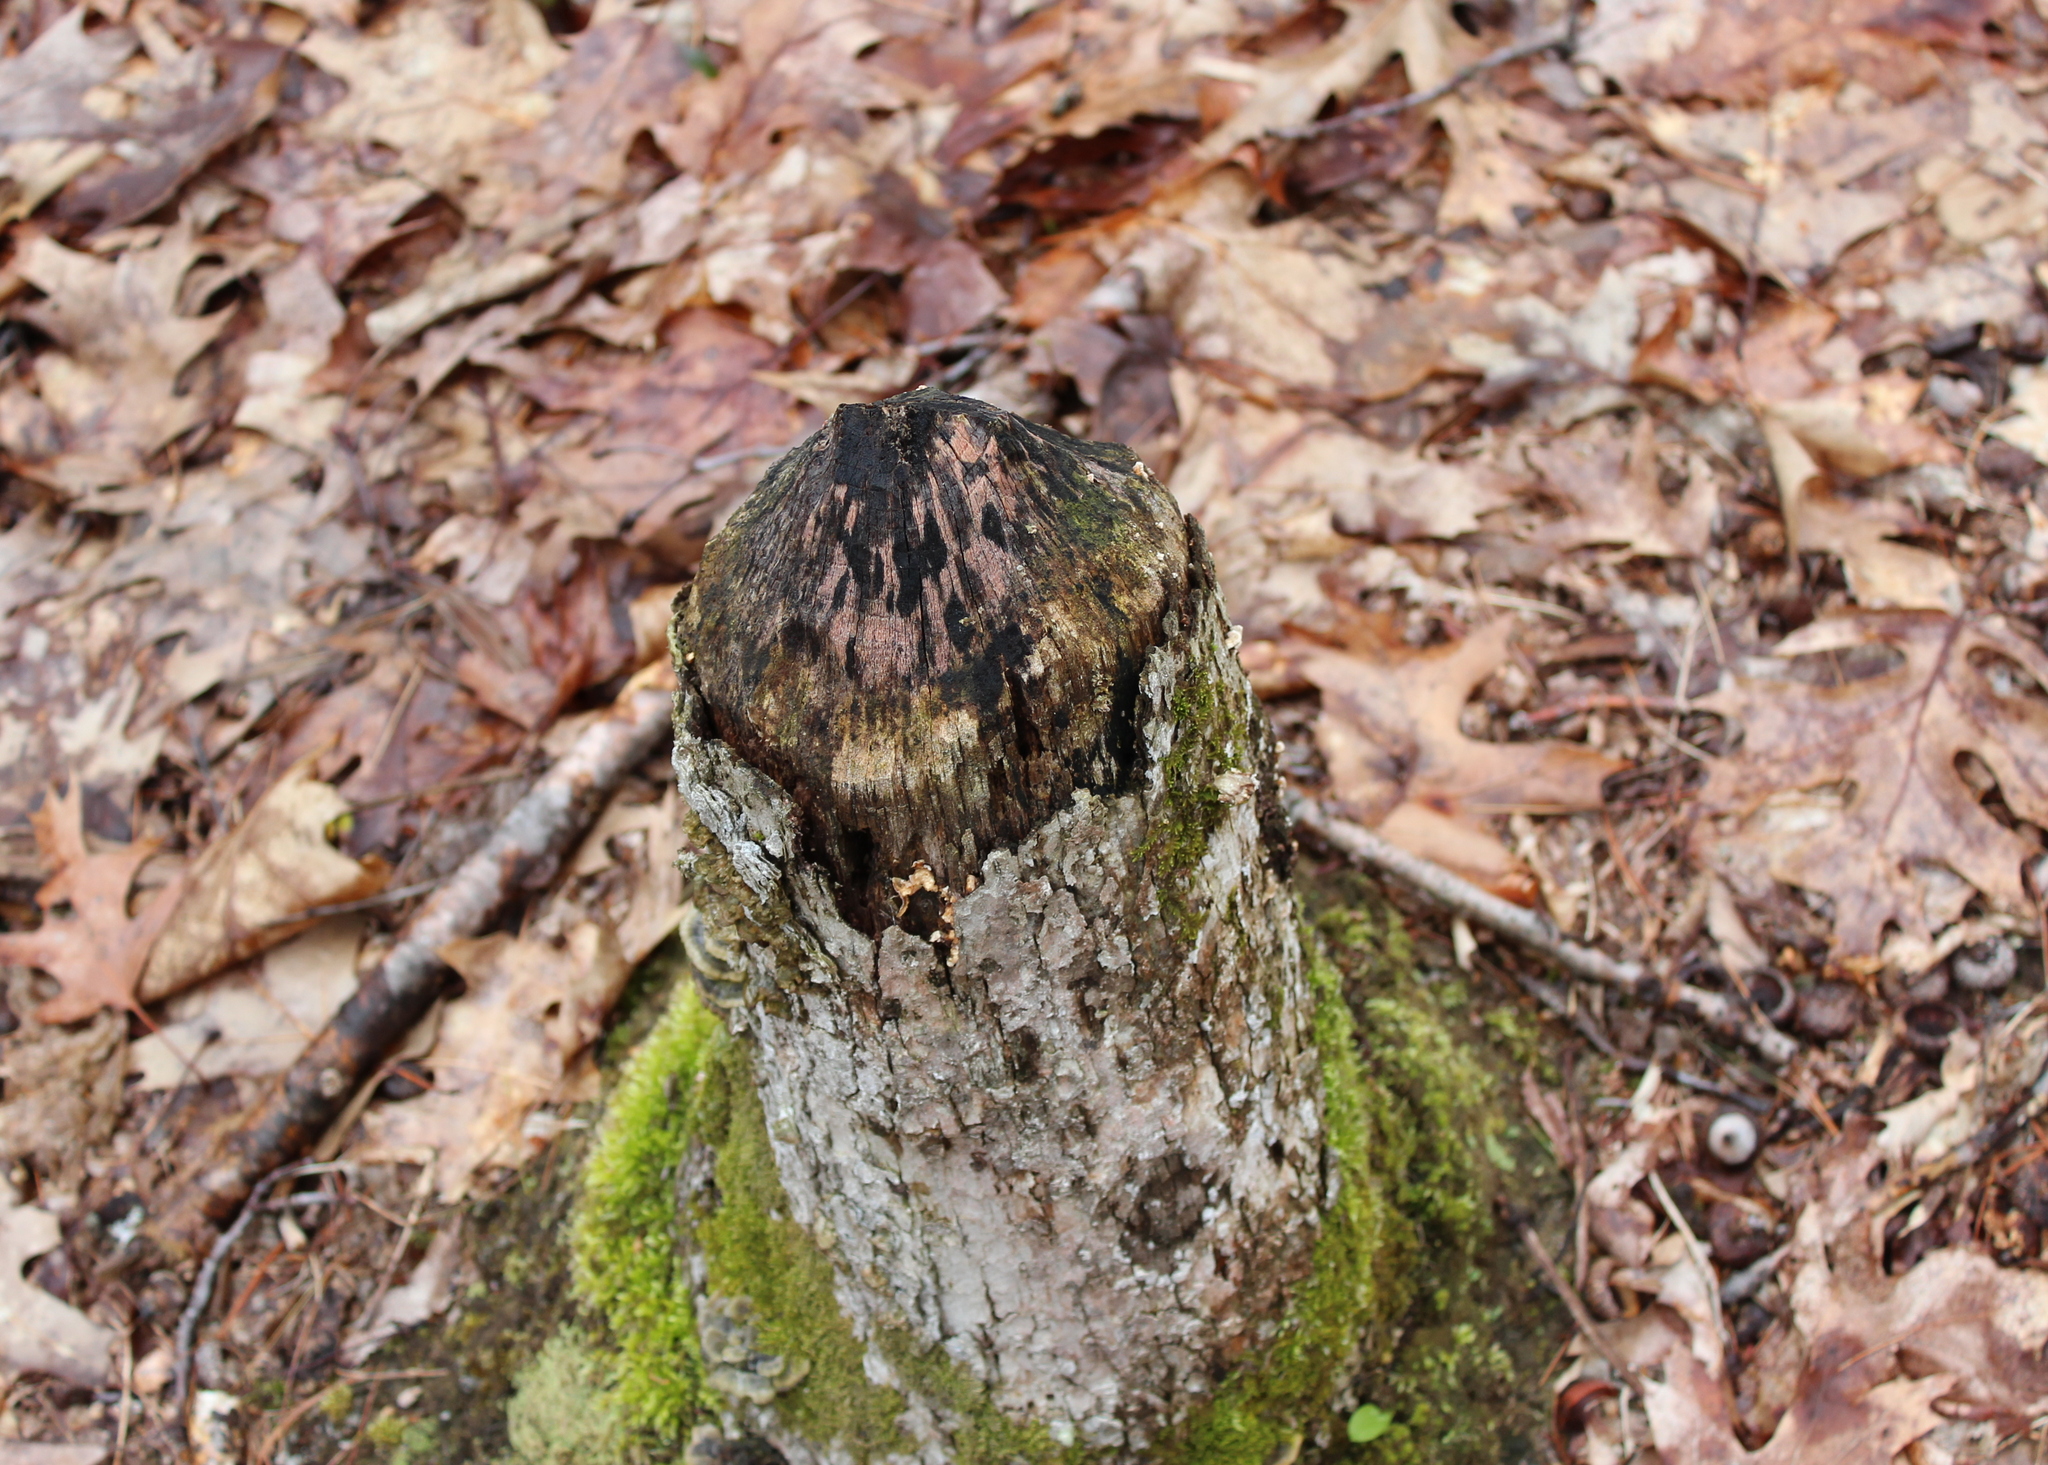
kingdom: Animalia
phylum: Chordata
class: Mammalia
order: Rodentia
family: Castoridae
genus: Castor
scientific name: Castor canadensis
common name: American beaver
